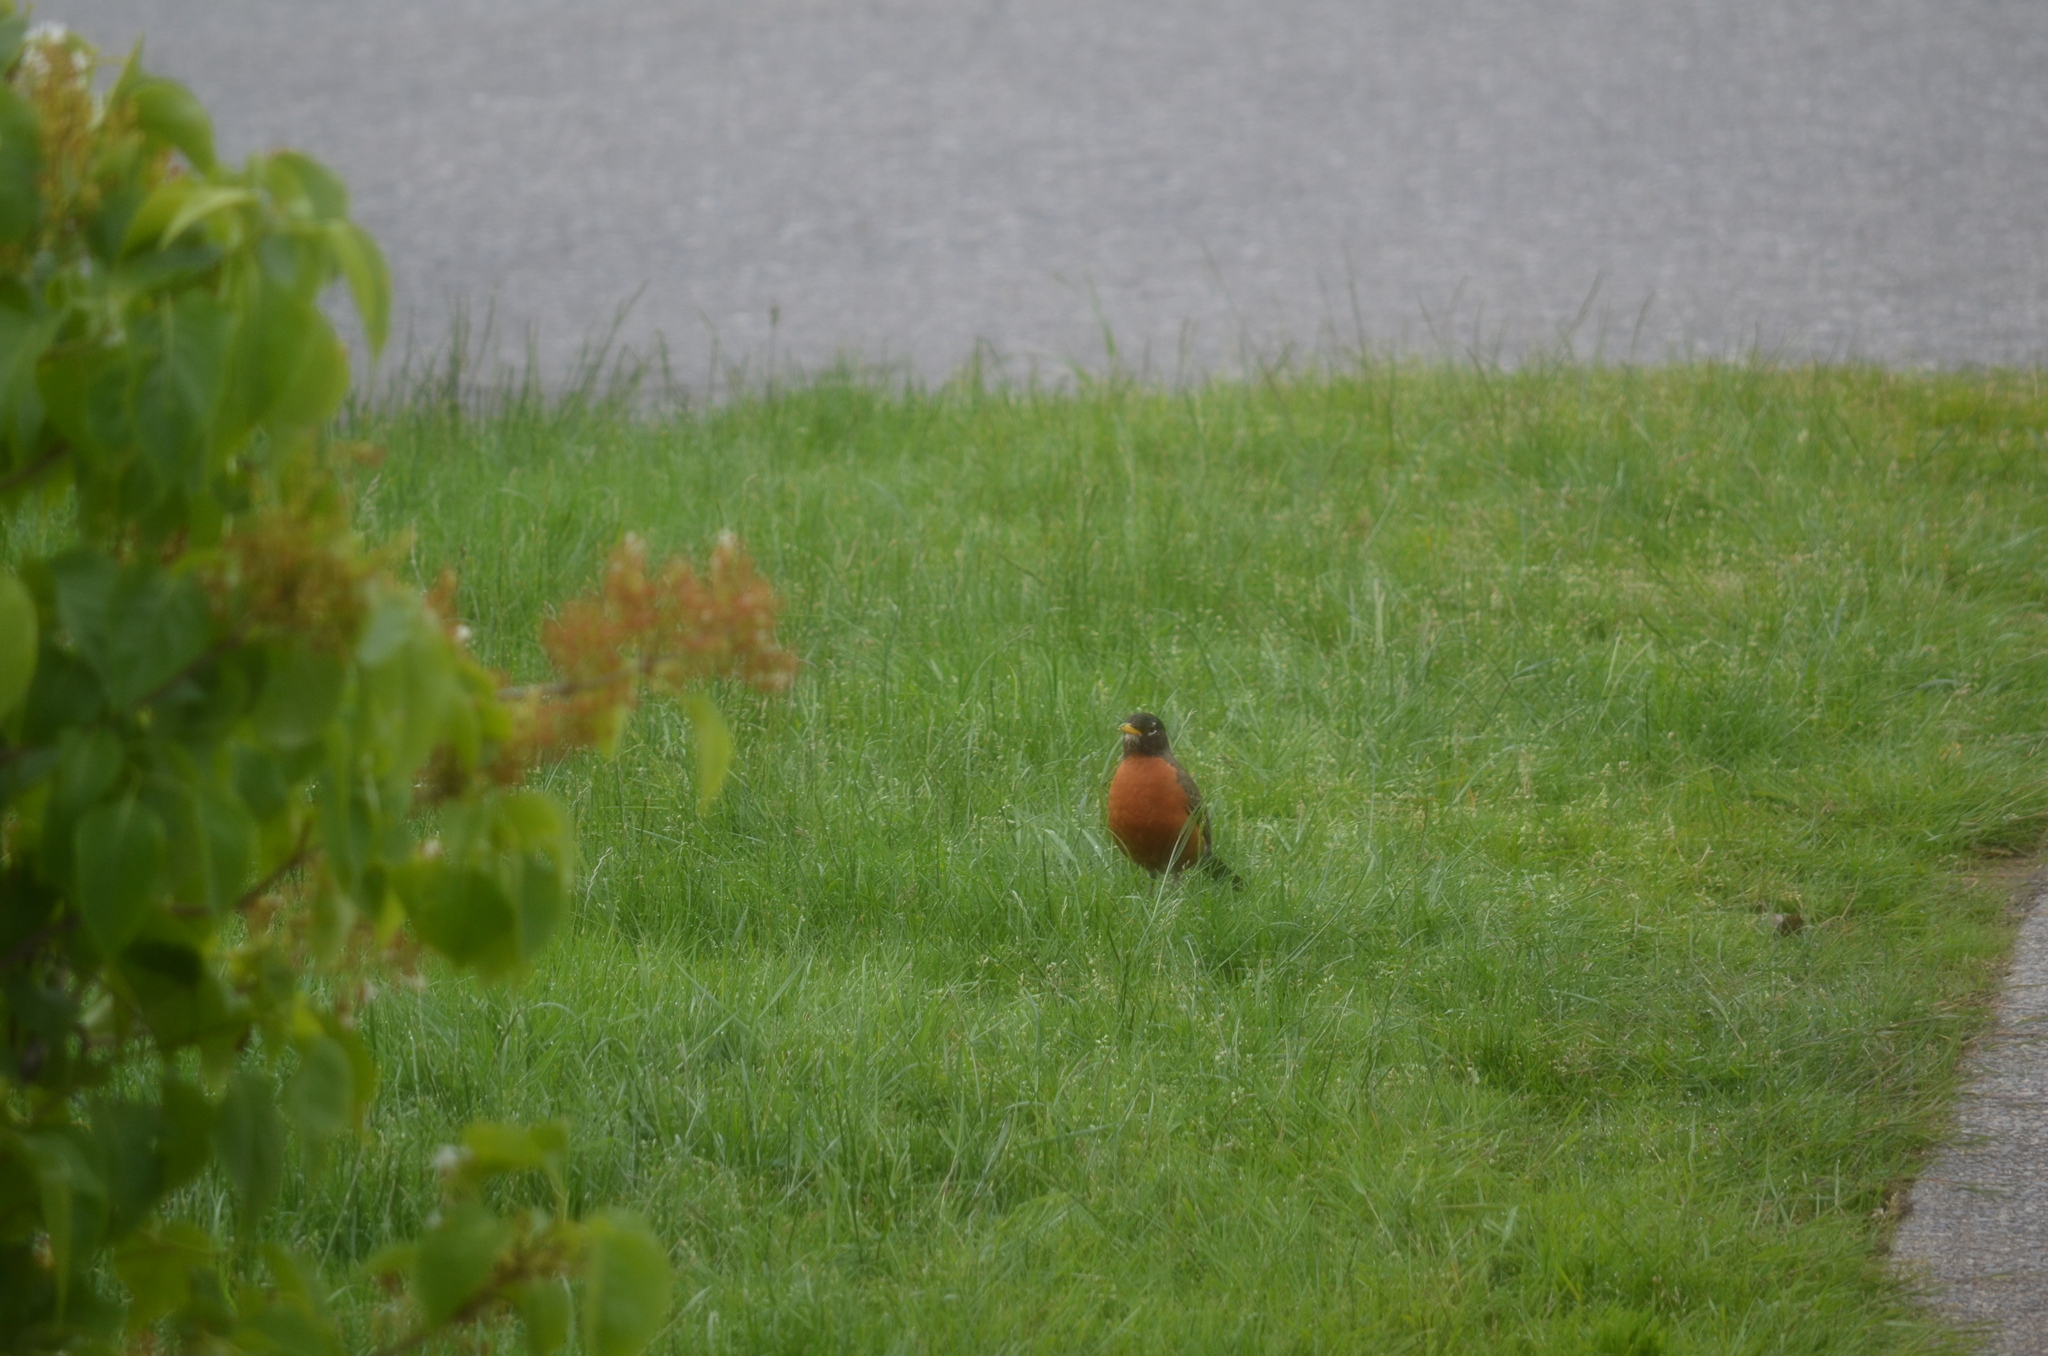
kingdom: Animalia
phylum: Chordata
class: Aves
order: Passeriformes
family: Turdidae
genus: Turdus
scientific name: Turdus migratorius
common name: American robin
